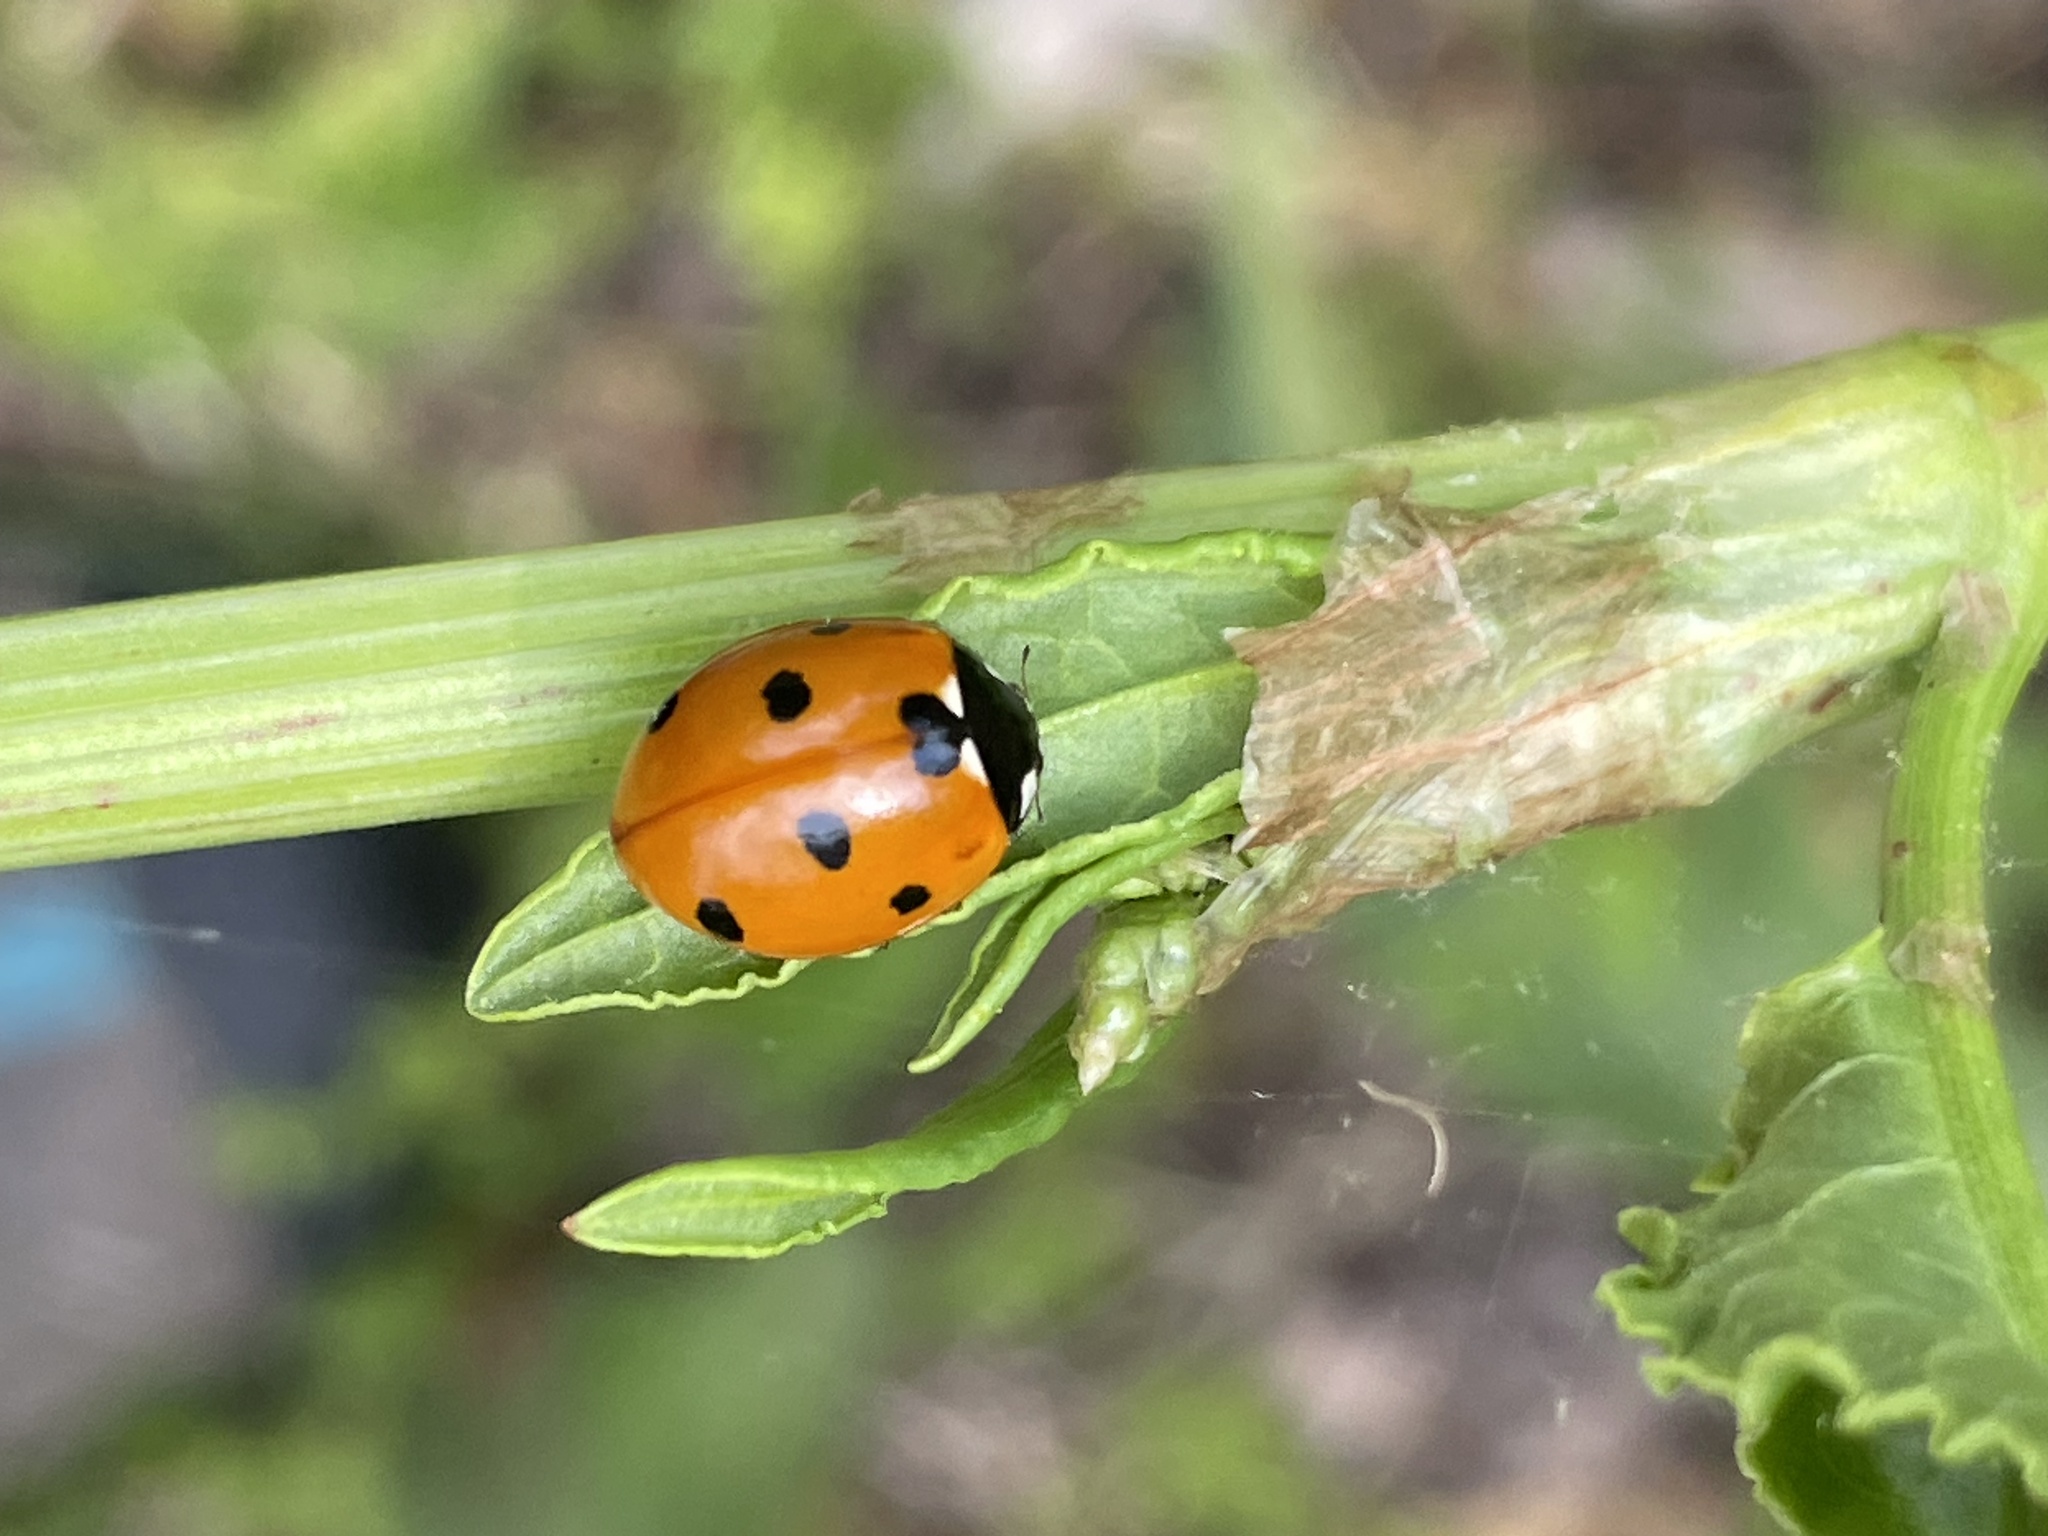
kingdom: Animalia
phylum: Arthropoda
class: Insecta
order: Coleoptera
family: Coccinellidae
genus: Coccinella
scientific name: Coccinella septempunctata
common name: Sevenspotted lady beetle
